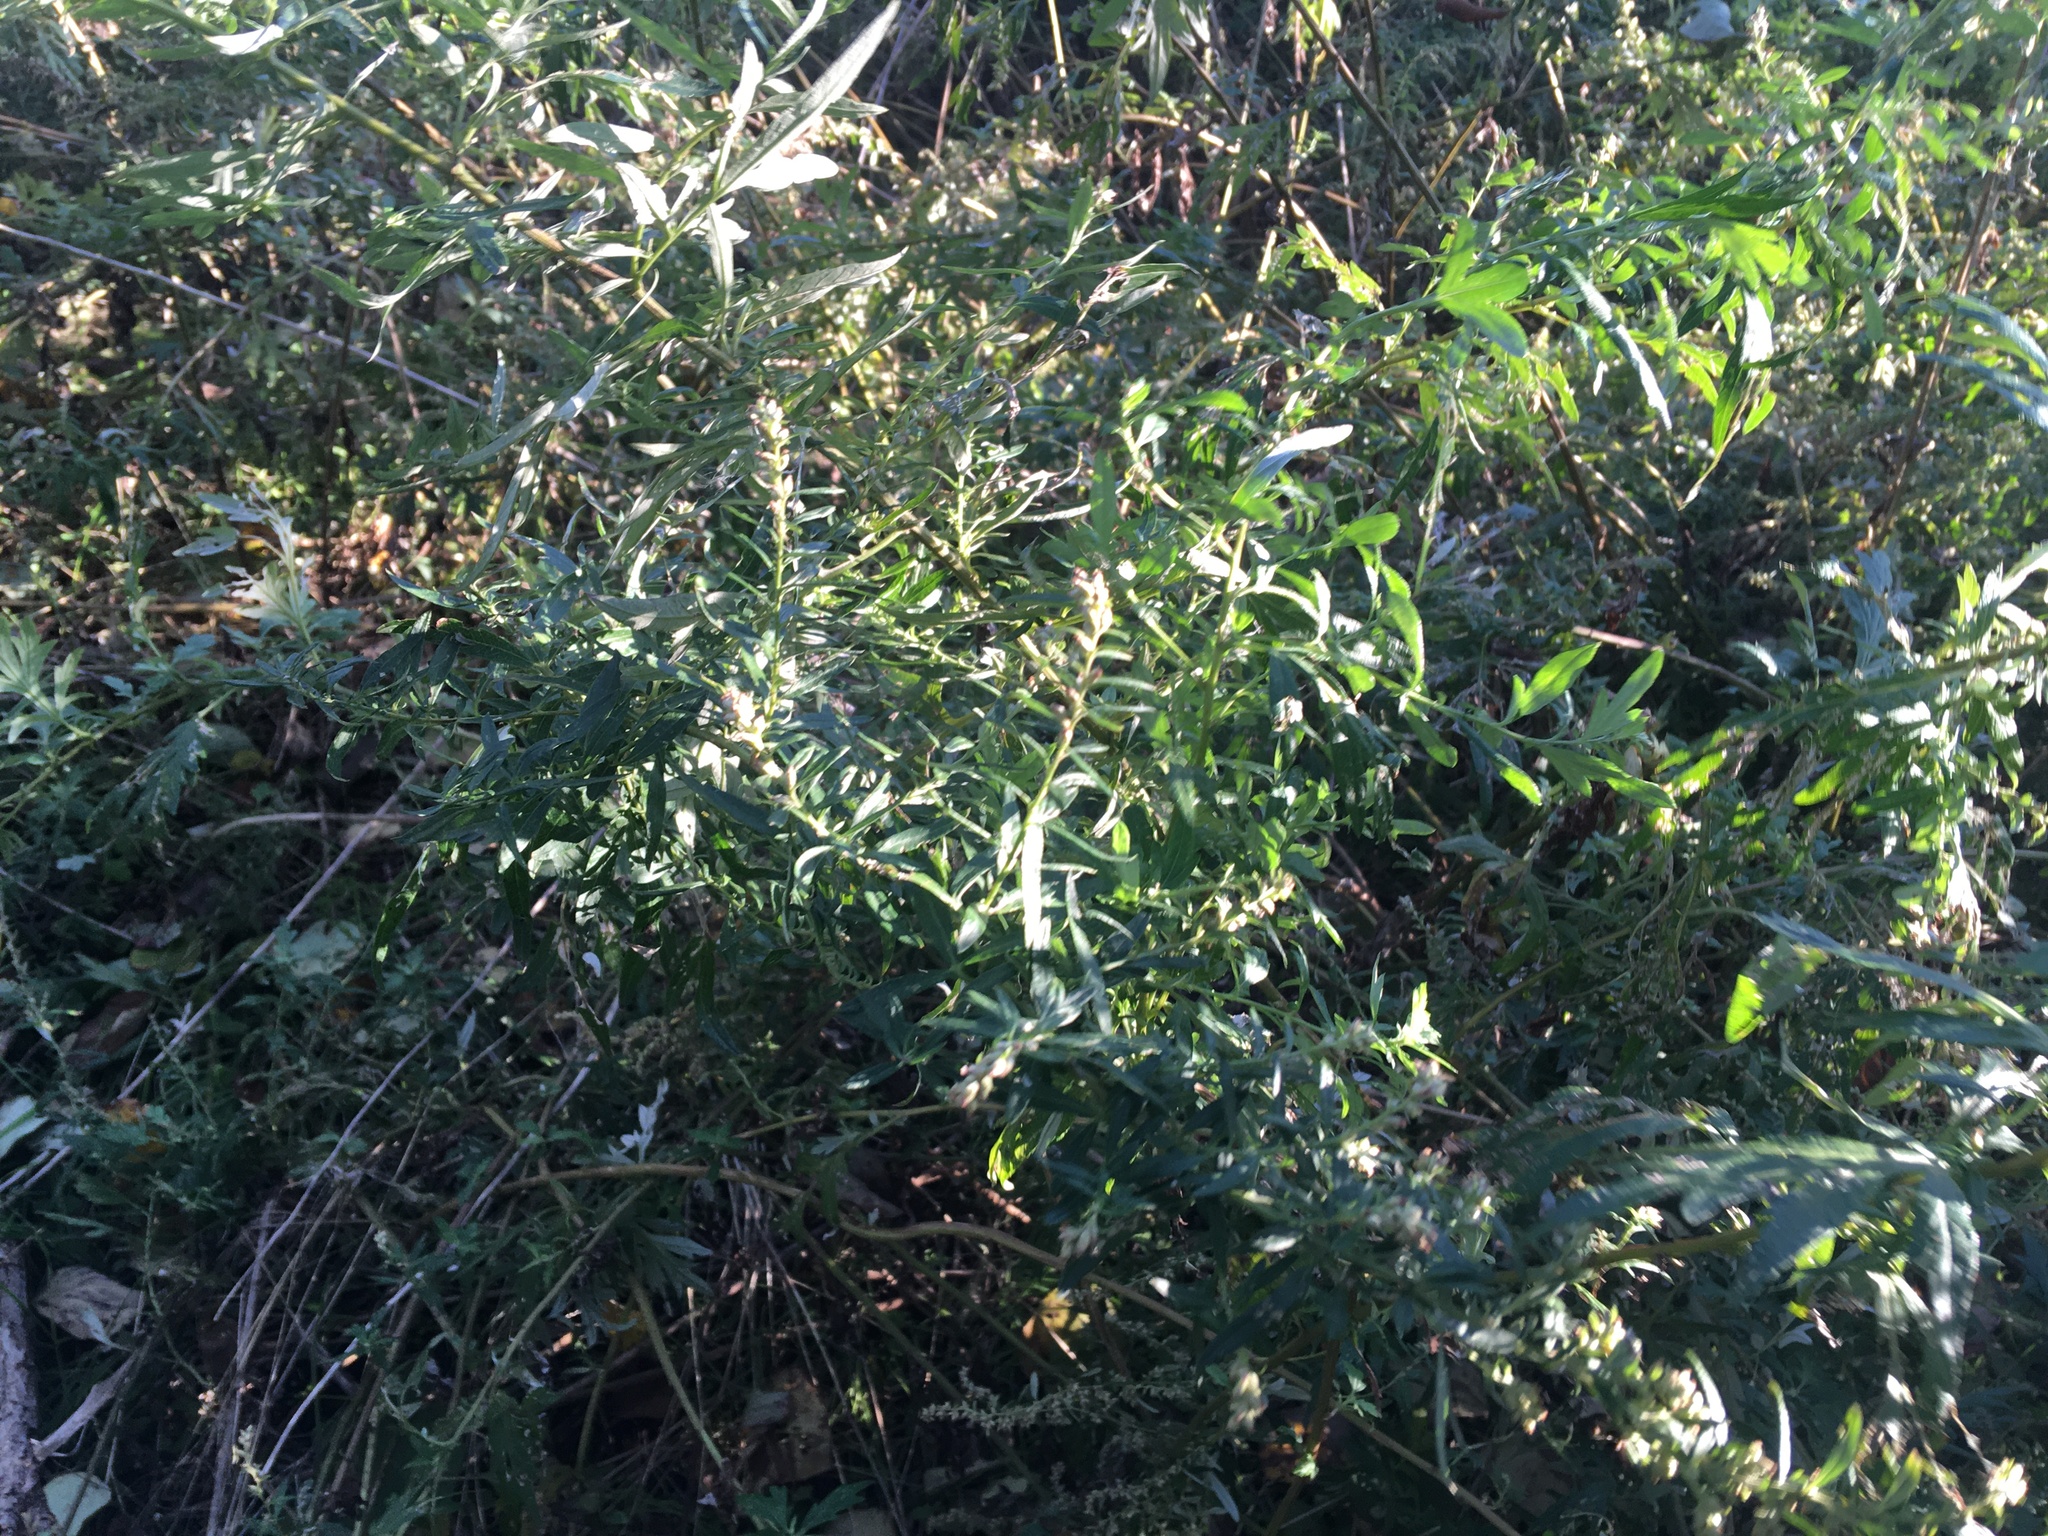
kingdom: Plantae
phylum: Tracheophyta
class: Magnoliopsida
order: Asterales
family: Asteraceae
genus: Artemisia
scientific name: Artemisia vulgaris
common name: Mugwort
